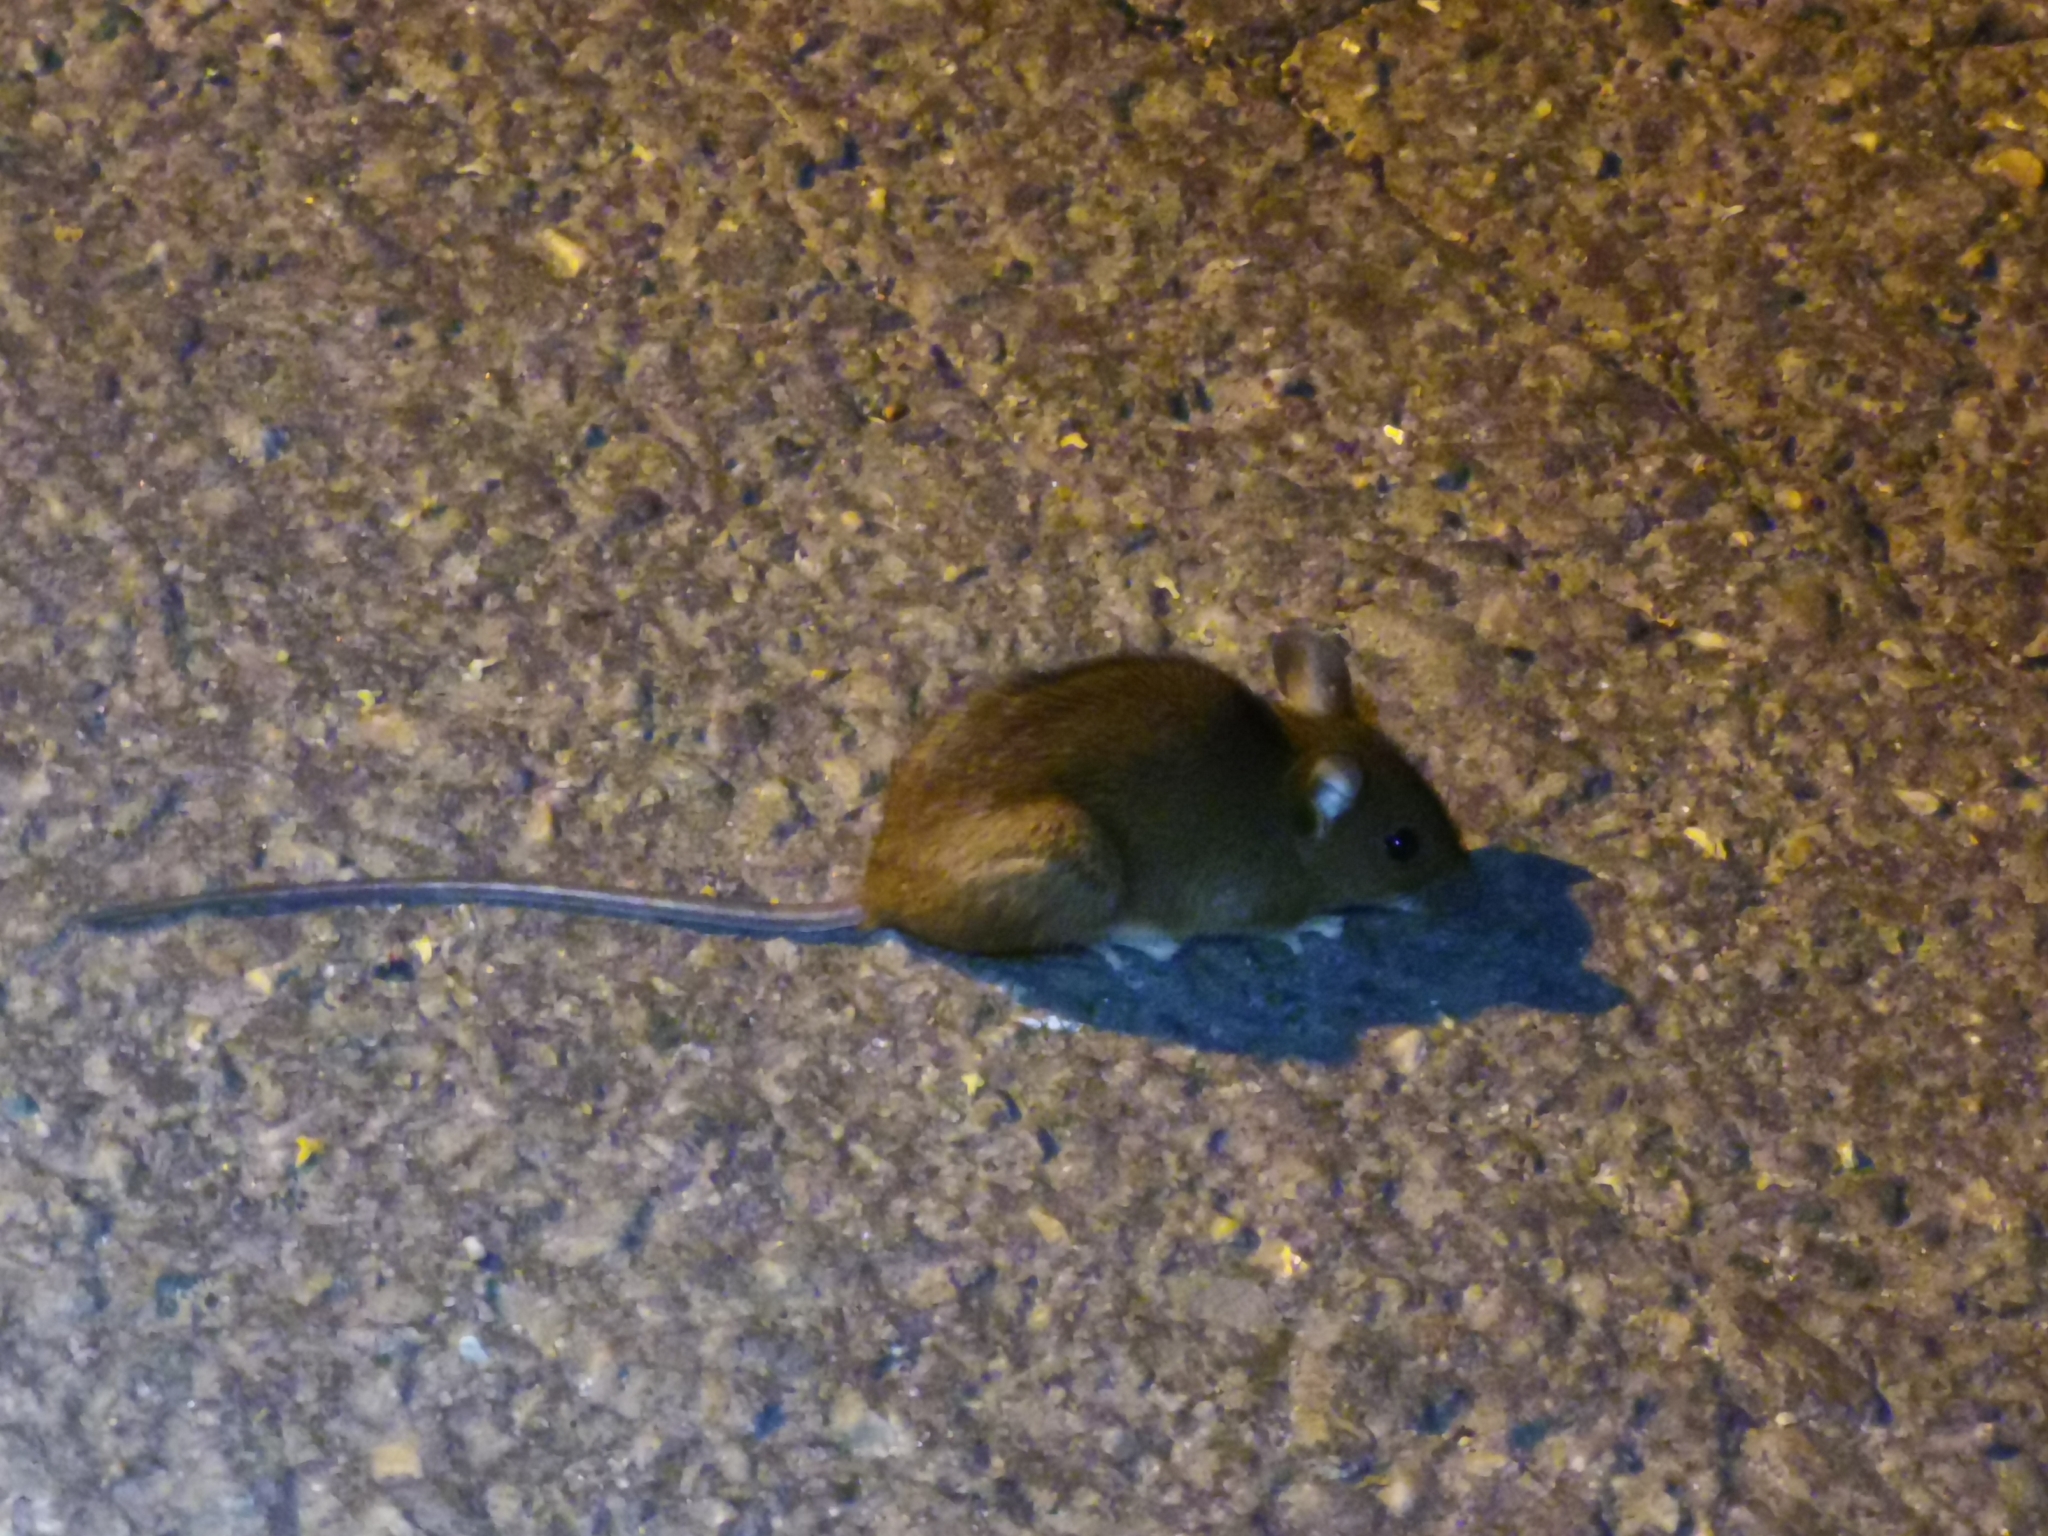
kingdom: Animalia
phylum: Chordata
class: Mammalia
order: Rodentia
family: Muridae
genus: Apodemus
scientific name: Apodemus flavicollis
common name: Yellow-necked field mouse
